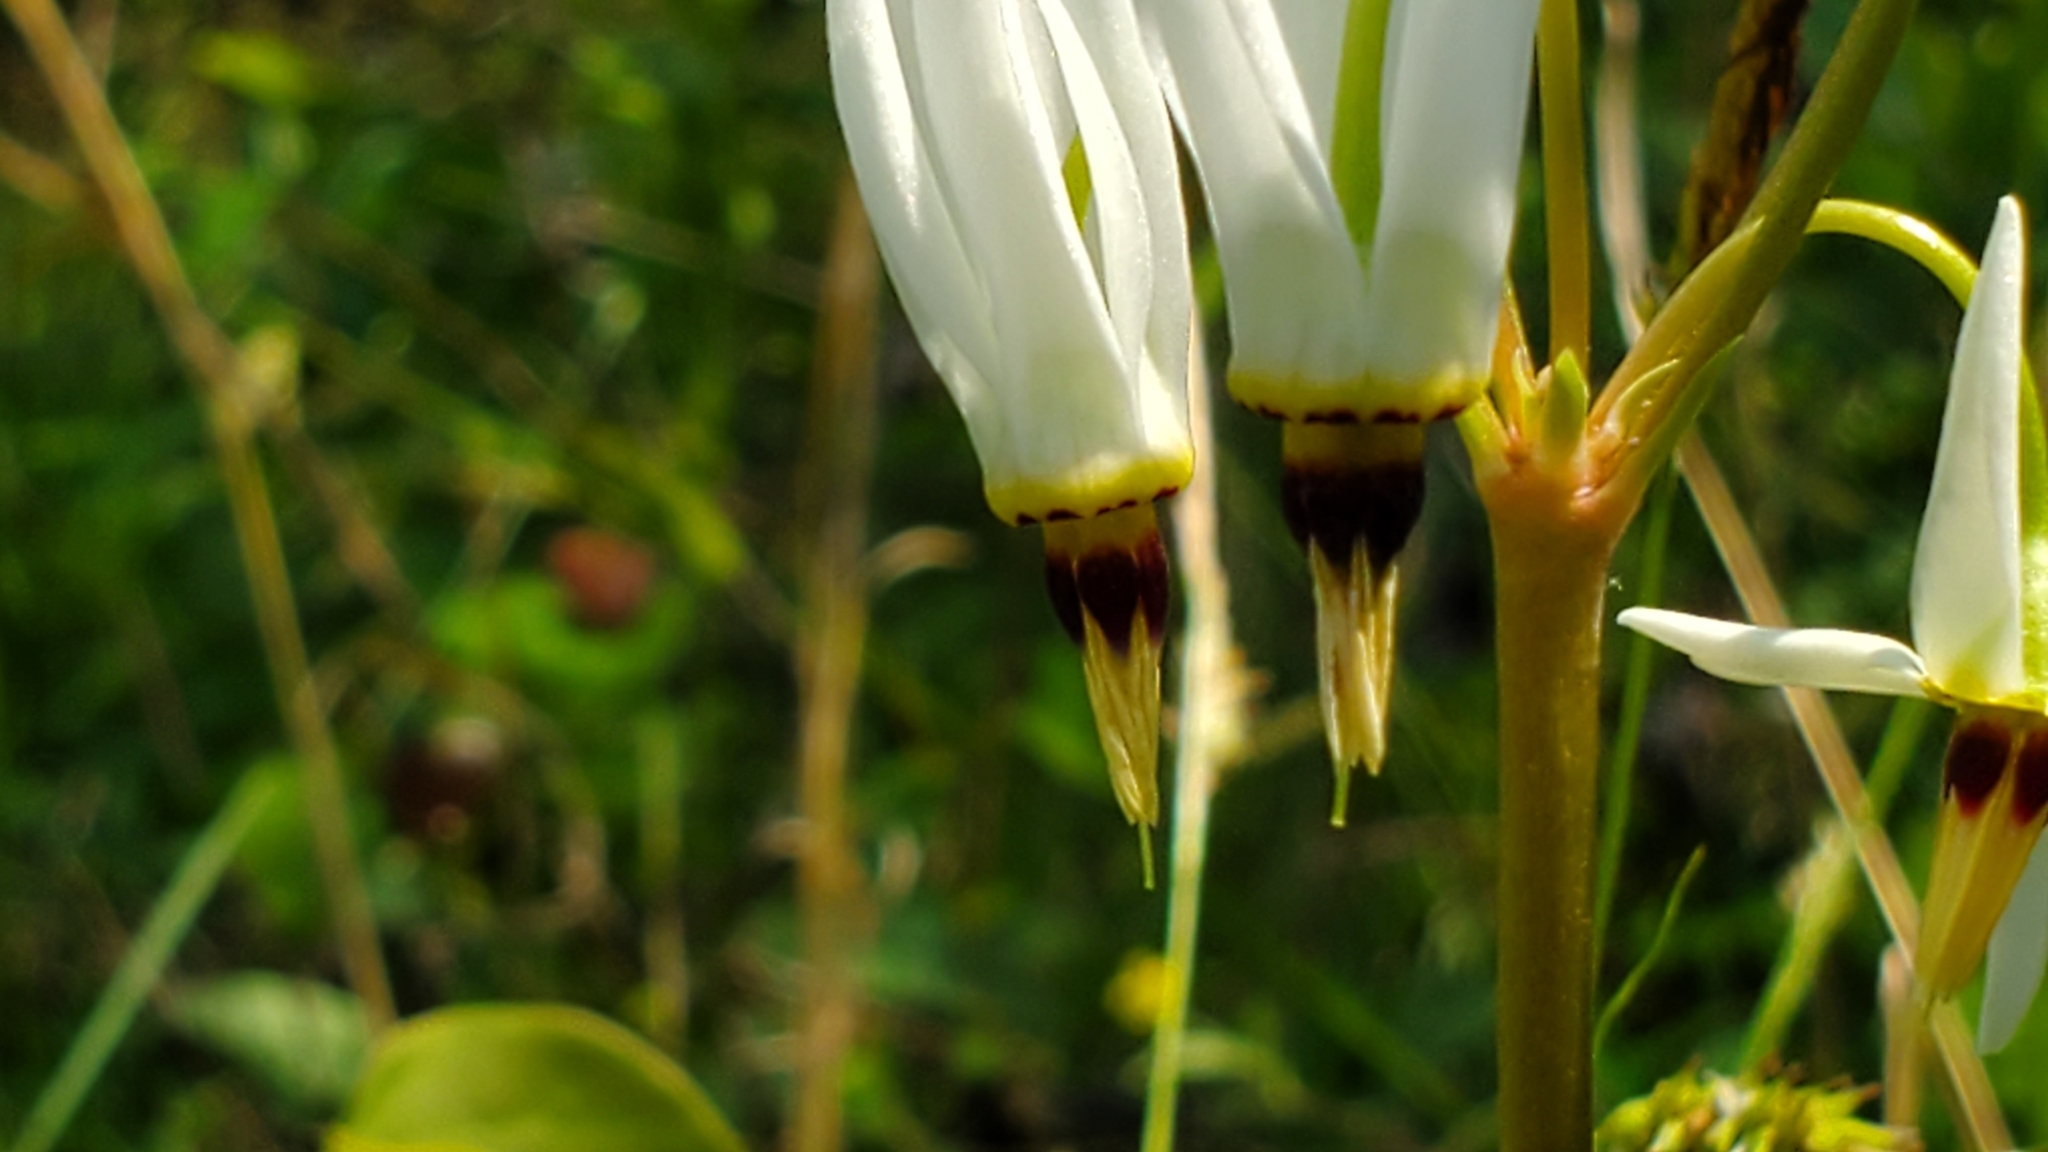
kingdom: Plantae
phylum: Tracheophyta
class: Magnoliopsida
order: Ericales
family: Primulaceae
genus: Dodecatheon
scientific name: Dodecatheon meadia
